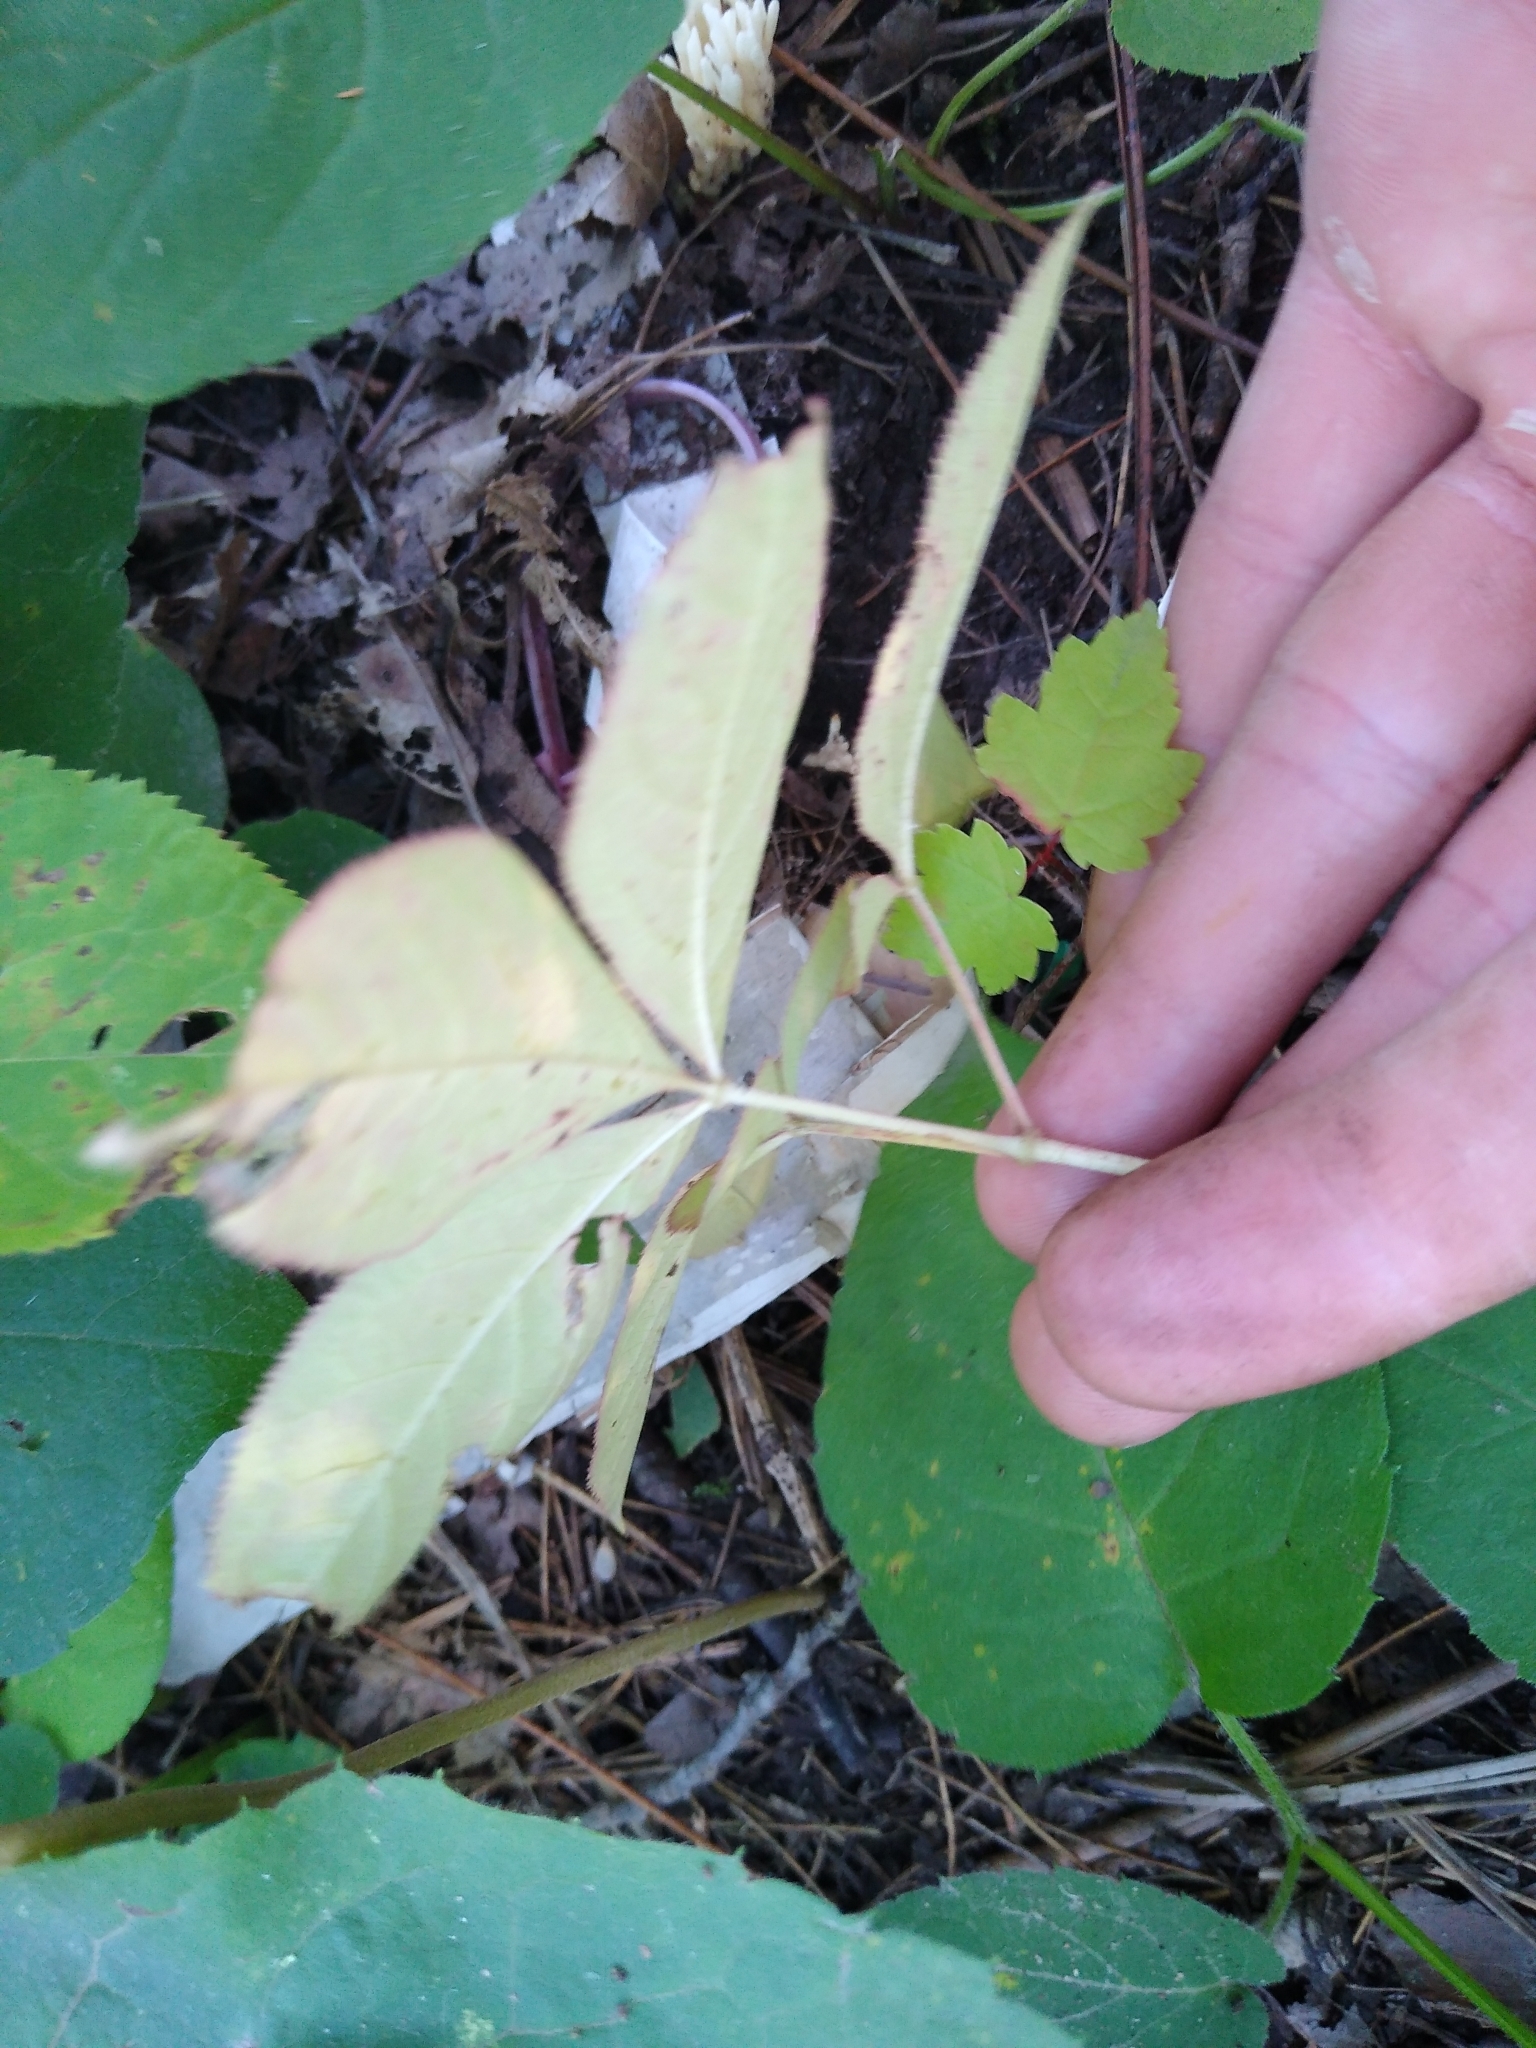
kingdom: Plantae
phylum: Tracheophyta
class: Magnoliopsida
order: Apiales
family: Araliaceae
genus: Aralia
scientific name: Aralia nudicaulis
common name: Wild sarsaparilla
